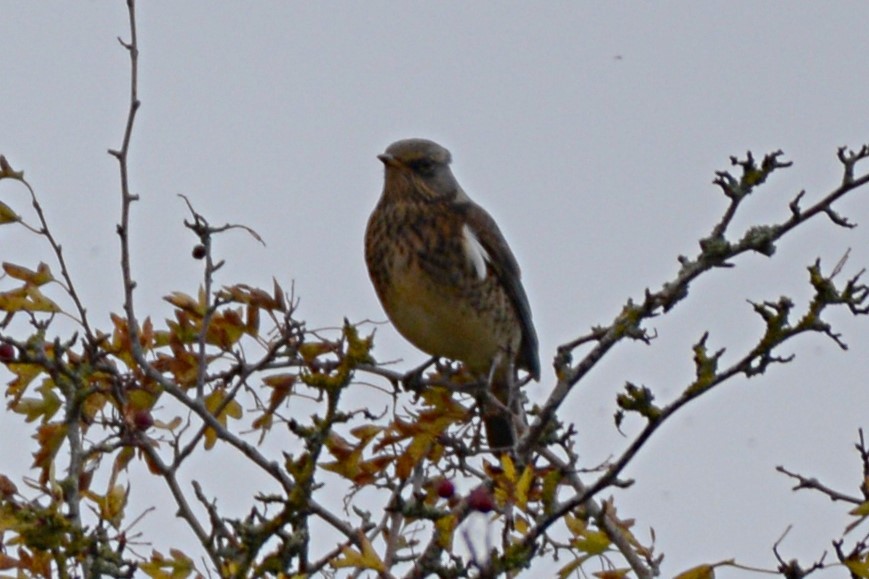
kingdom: Animalia
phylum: Chordata
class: Aves
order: Passeriformes
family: Turdidae
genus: Turdus
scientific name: Turdus pilaris
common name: Fieldfare
